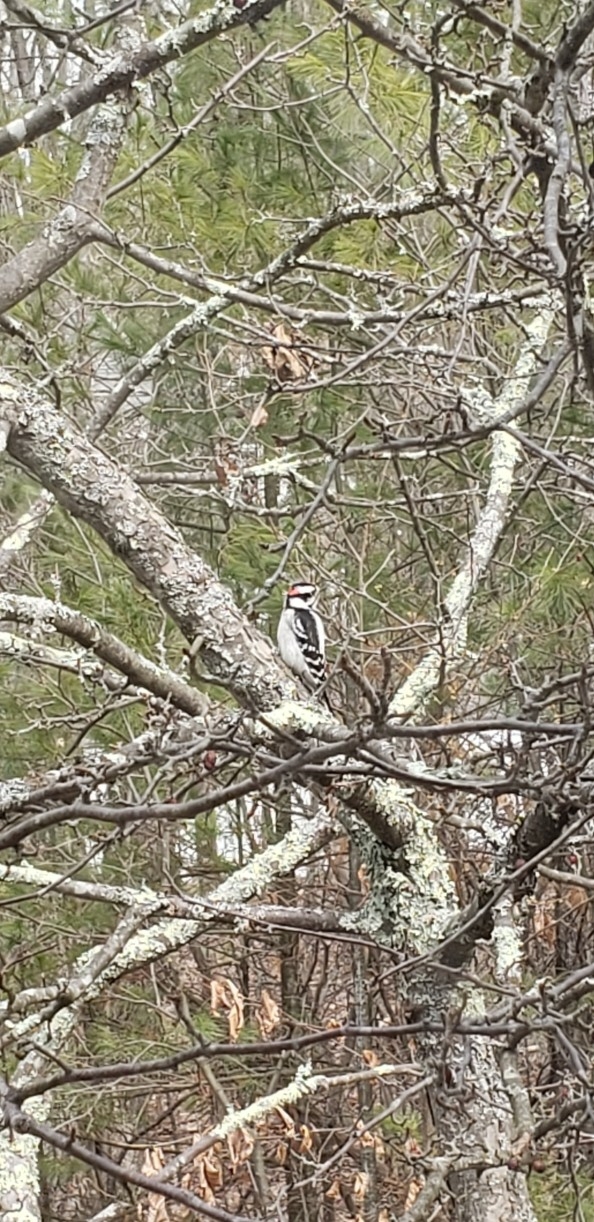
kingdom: Animalia
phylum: Chordata
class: Aves
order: Piciformes
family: Picidae
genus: Dryobates
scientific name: Dryobates pubescens
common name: Downy woodpecker
